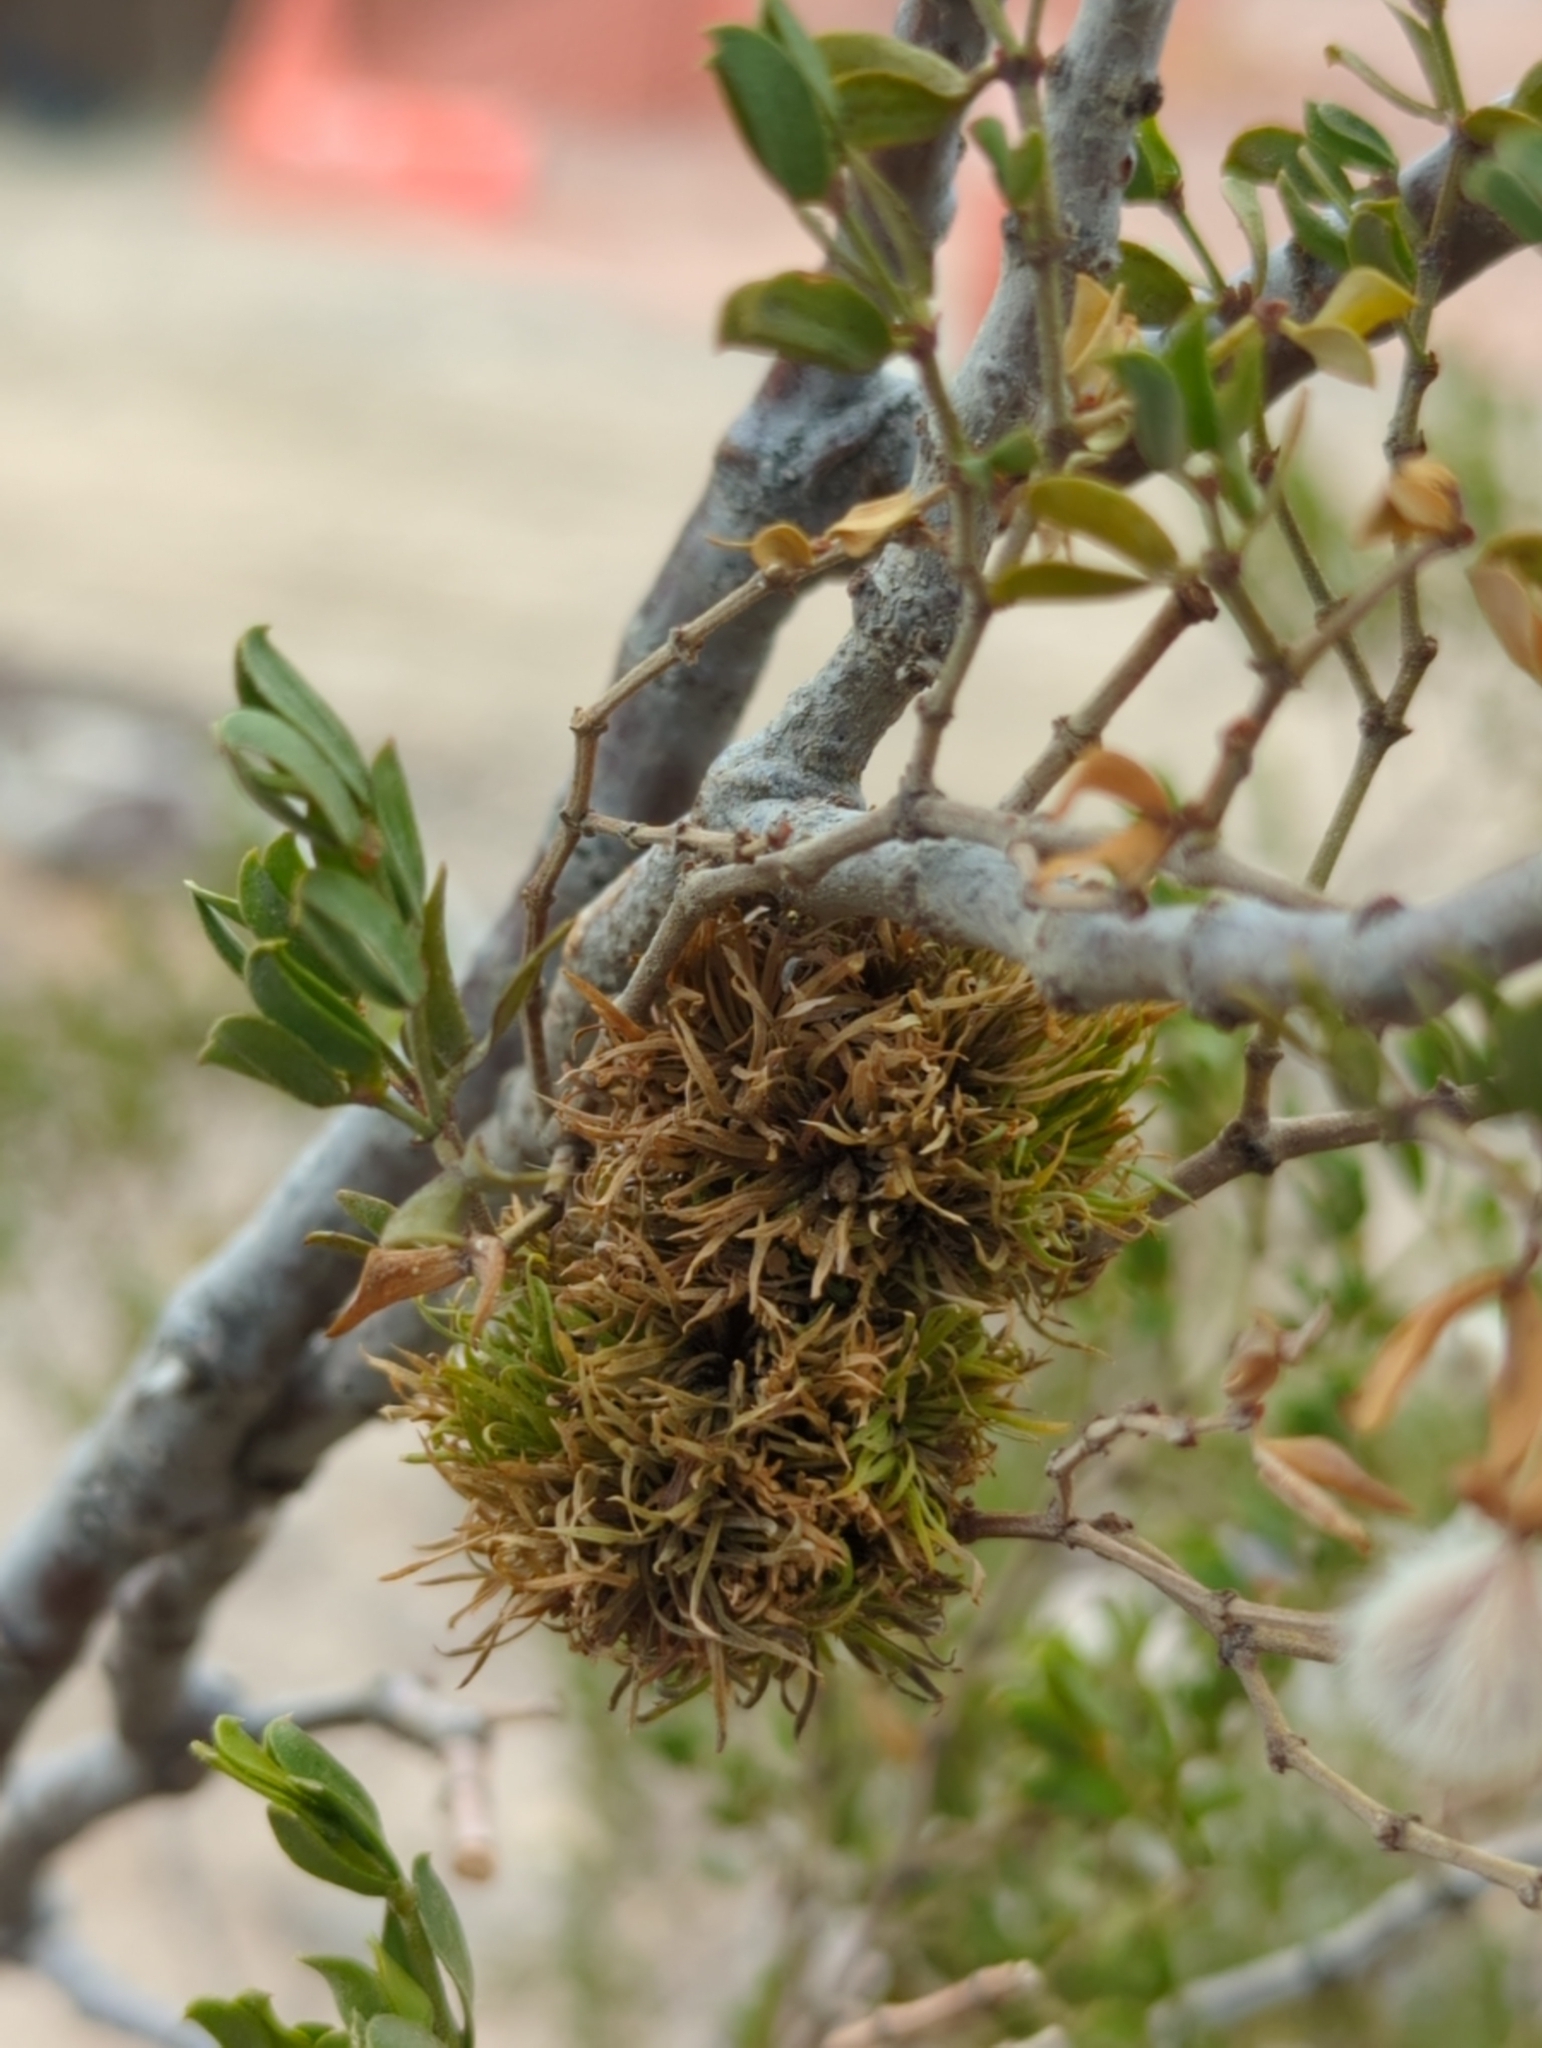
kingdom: Animalia
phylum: Arthropoda
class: Insecta
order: Diptera
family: Cecidomyiidae
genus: Asphondylia
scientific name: Asphondylia auripila
